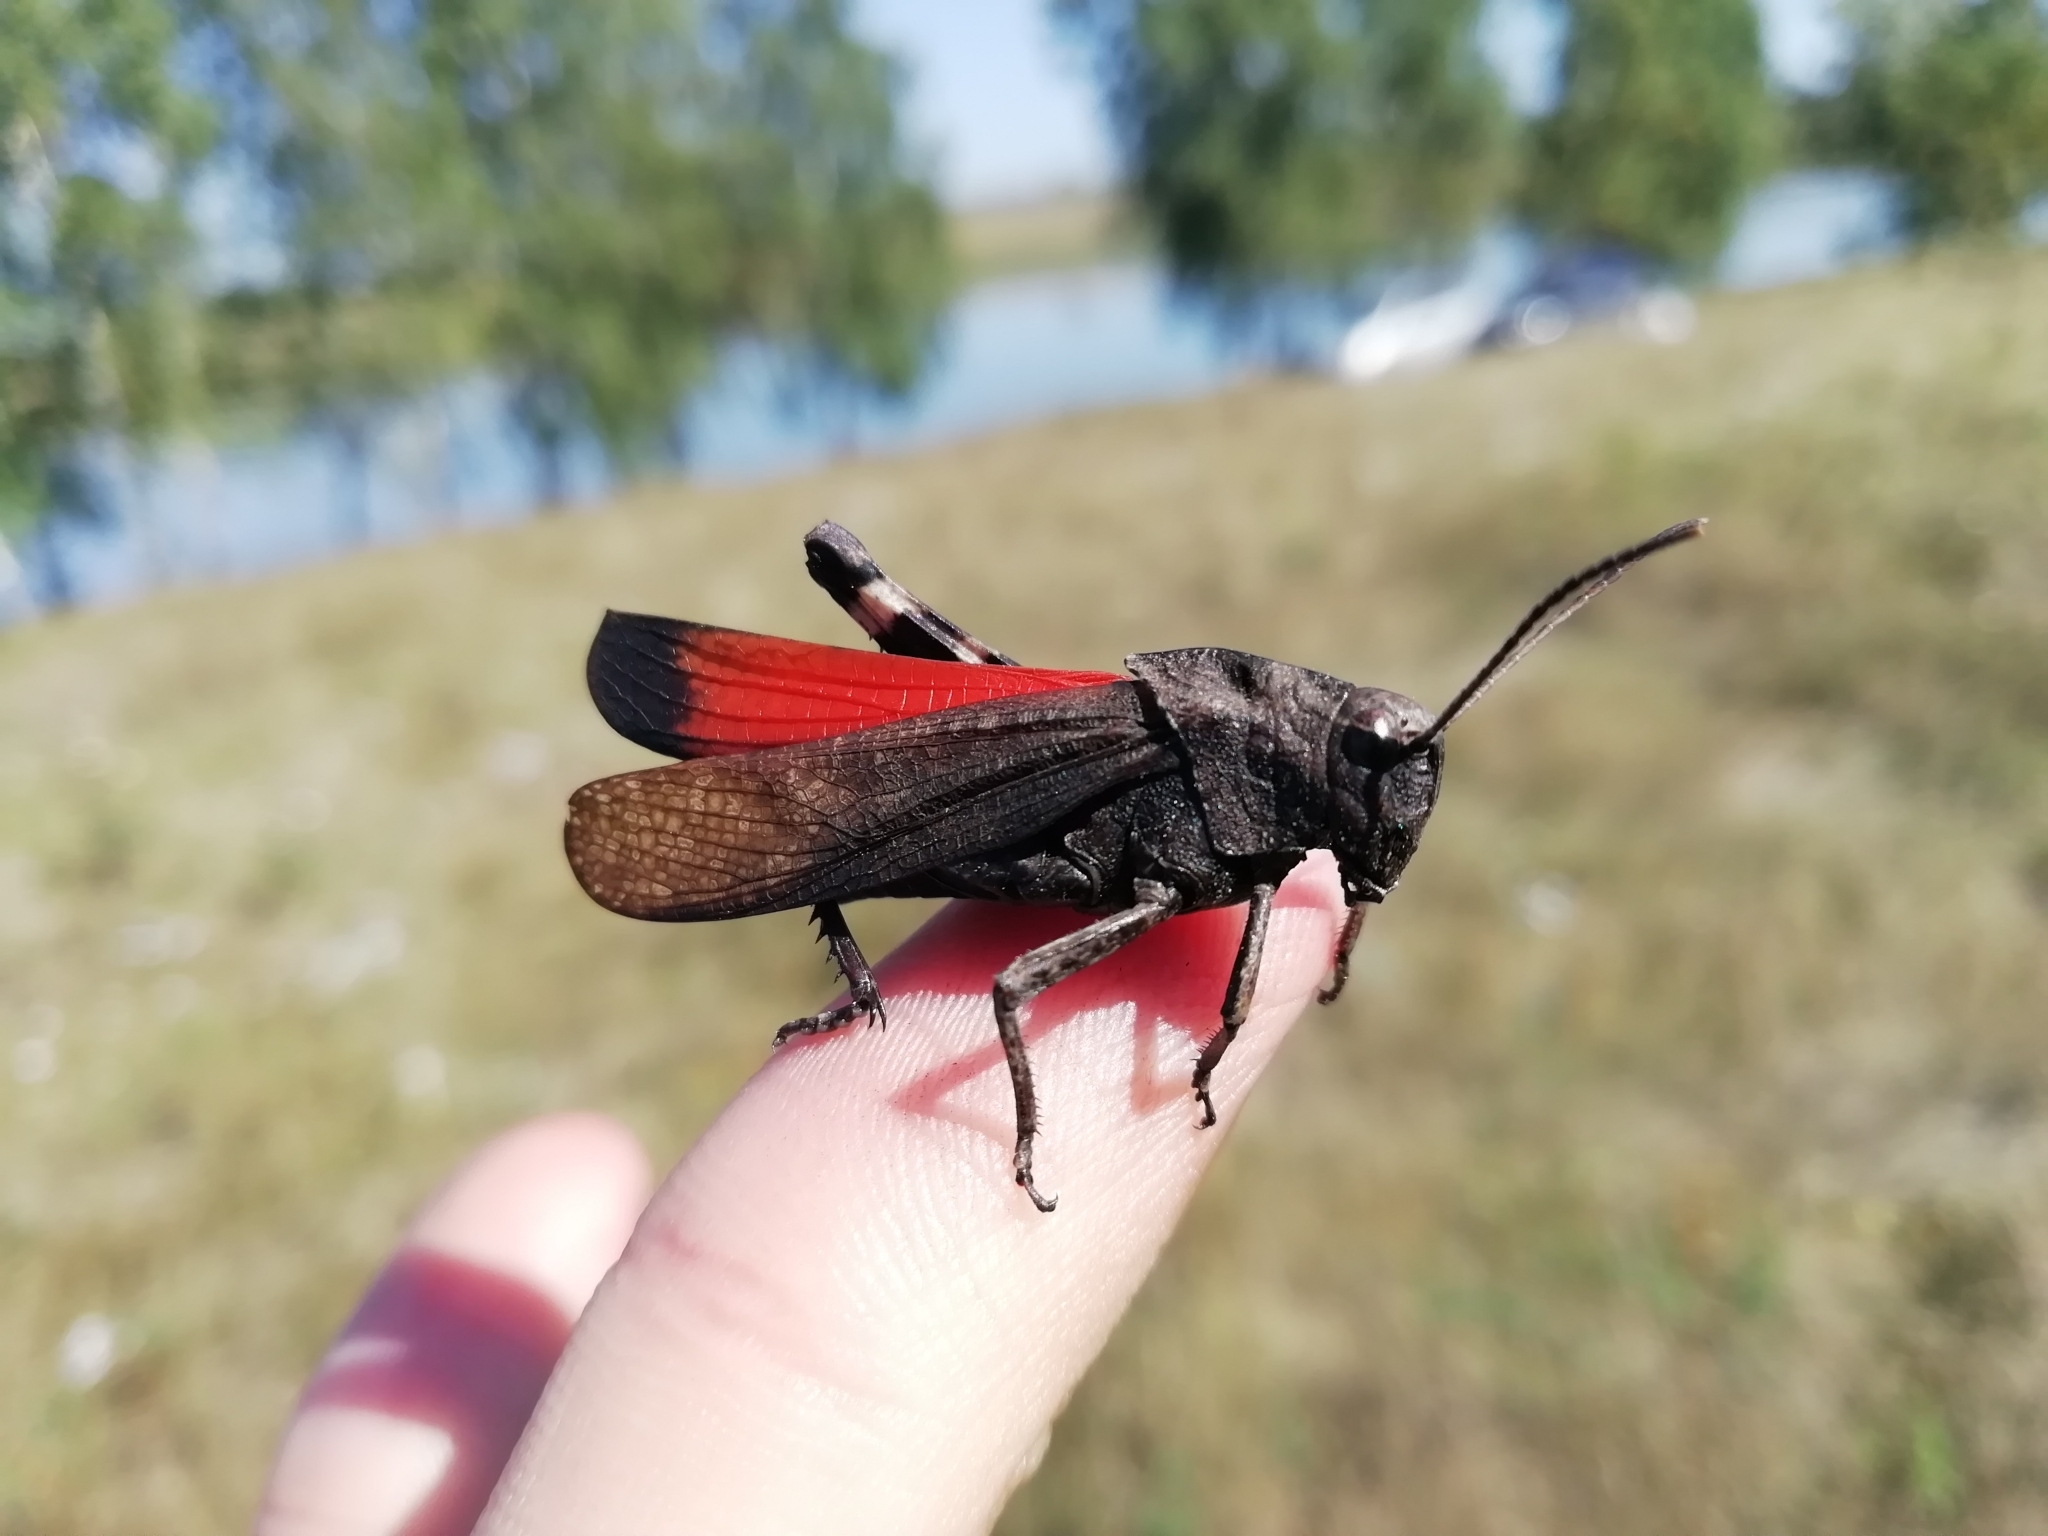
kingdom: Animalia
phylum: Arthropoda
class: Insecta
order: Orthoptera
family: Acrididae
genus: Psophus
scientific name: Psophus stridulus
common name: Rattle grasshopper
